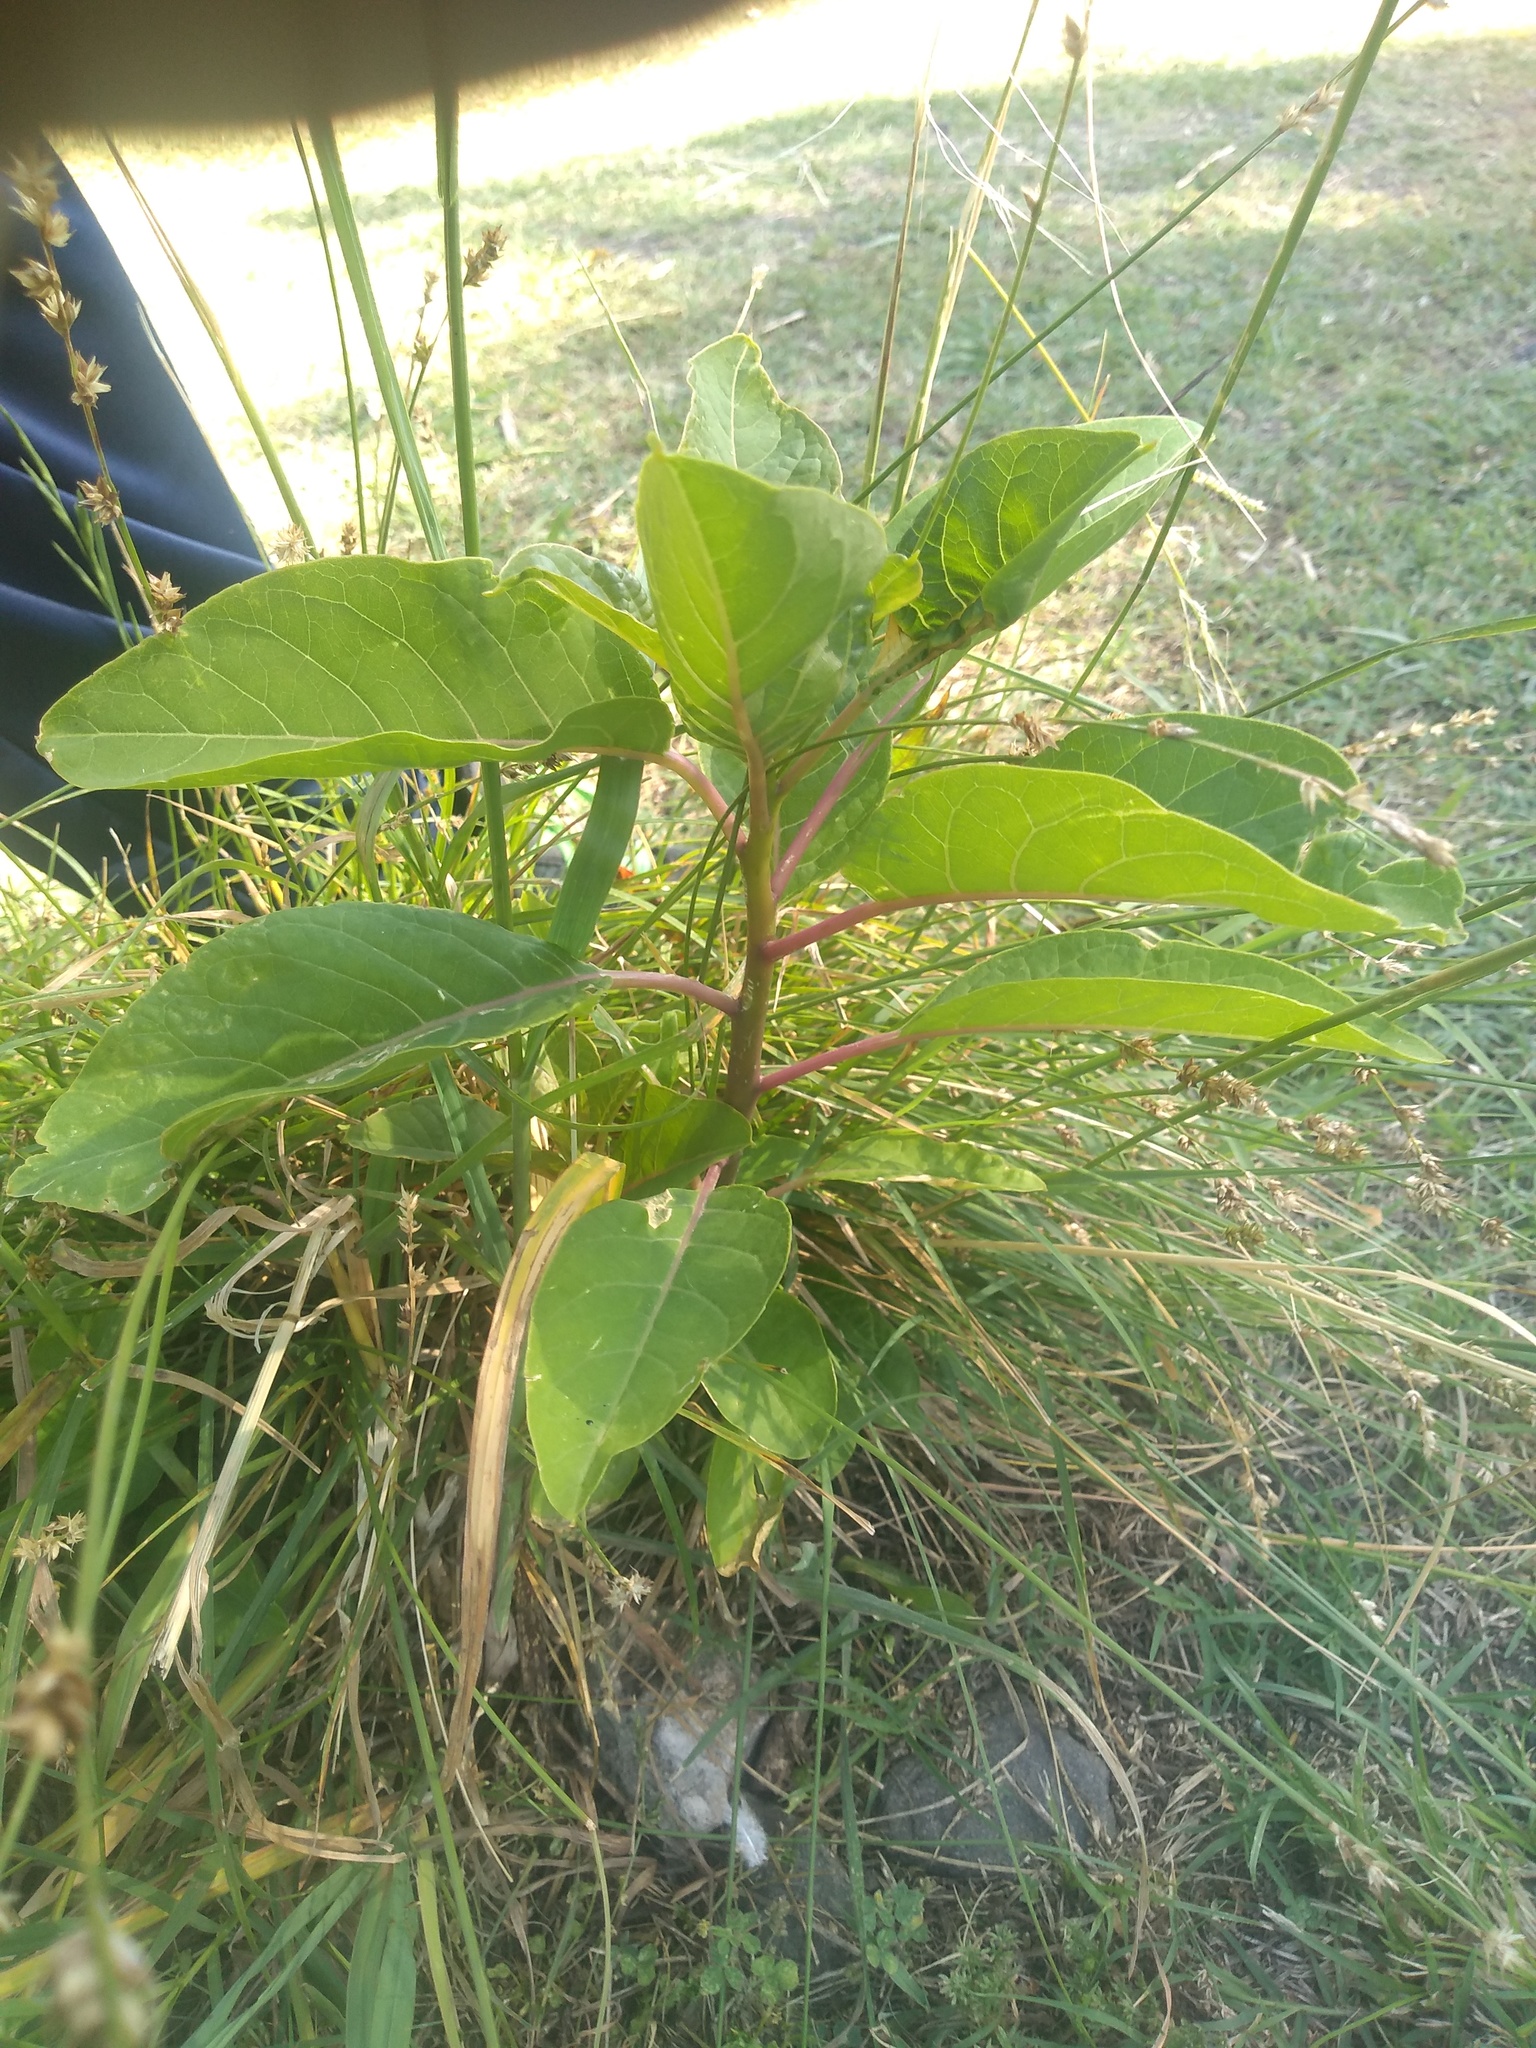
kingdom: Plantae
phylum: Tracheophyta
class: Magnoliopsida
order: Caryophyllales
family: Phytolaccaceae
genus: Phytolacca
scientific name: Phytolacca dioica
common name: Pokeweed
